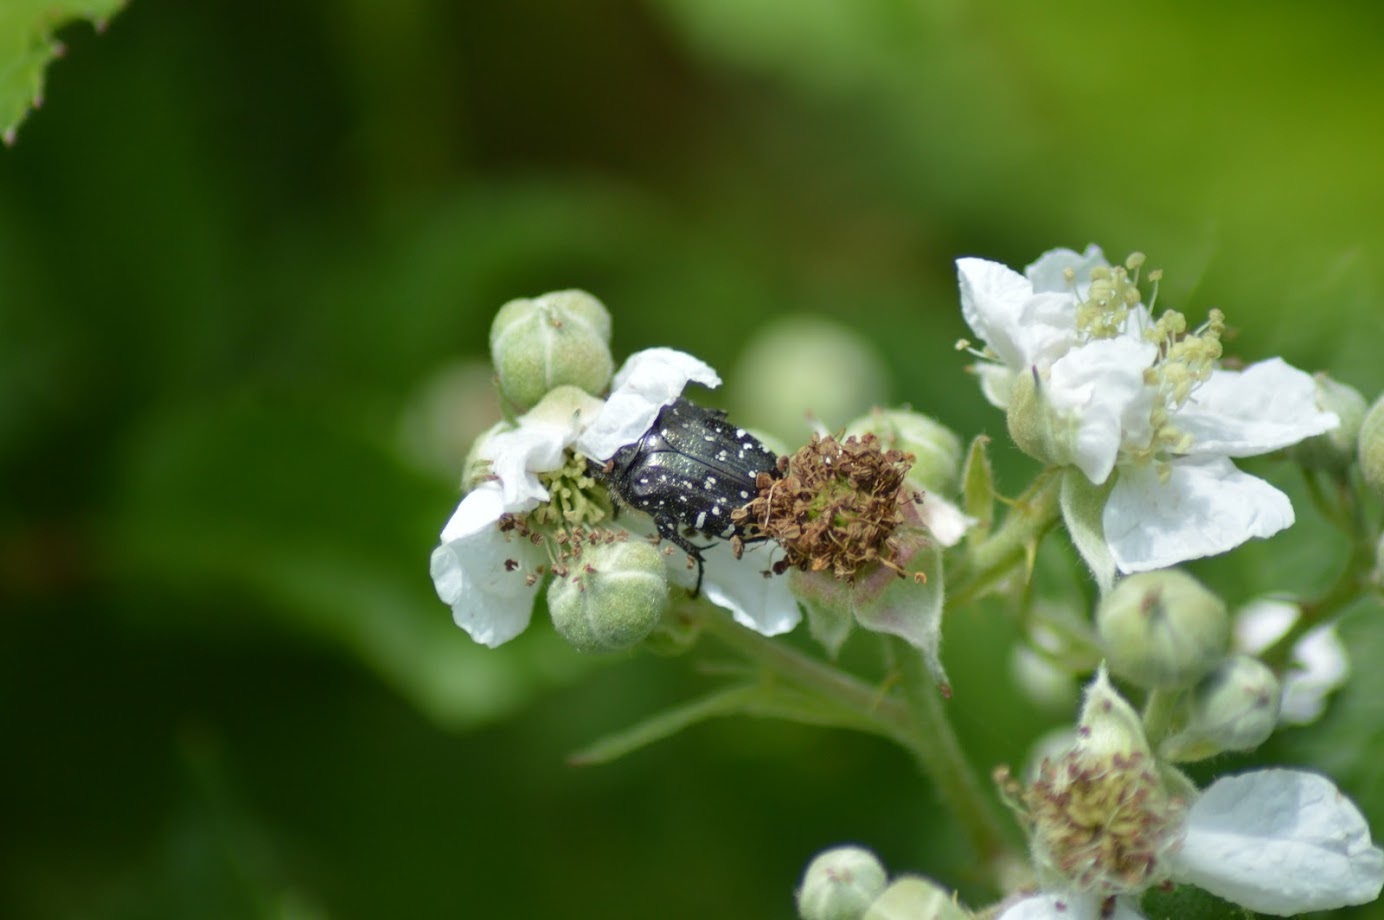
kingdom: Animalia
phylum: Arthropoda
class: Insecta
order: Coleoptera
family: Scarabaeidae
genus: Oxythyrea
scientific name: Oxythyrea funesta
